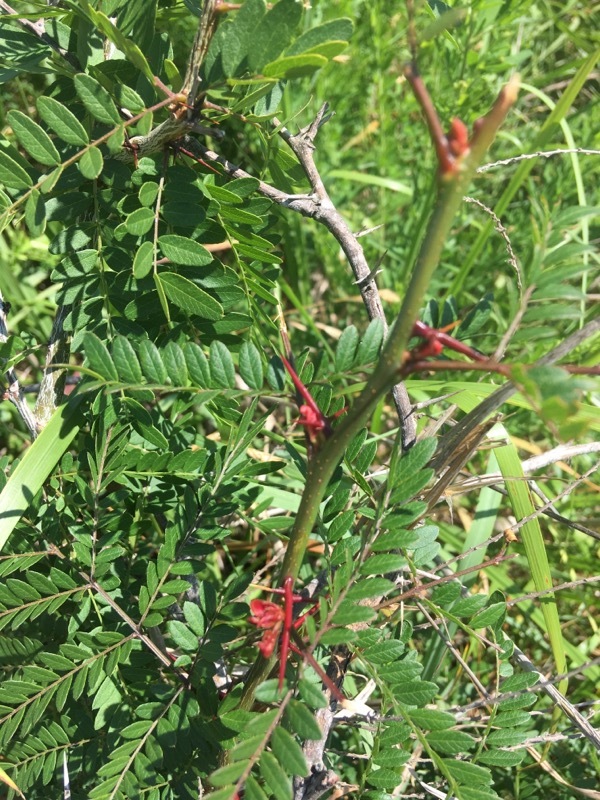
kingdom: Plantae
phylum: Tracheophyta
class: Magnoliopsida
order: Fabales
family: Fabaceae
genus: Gleditsia
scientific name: Gleditsia triacanthos
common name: Common honeylocust
